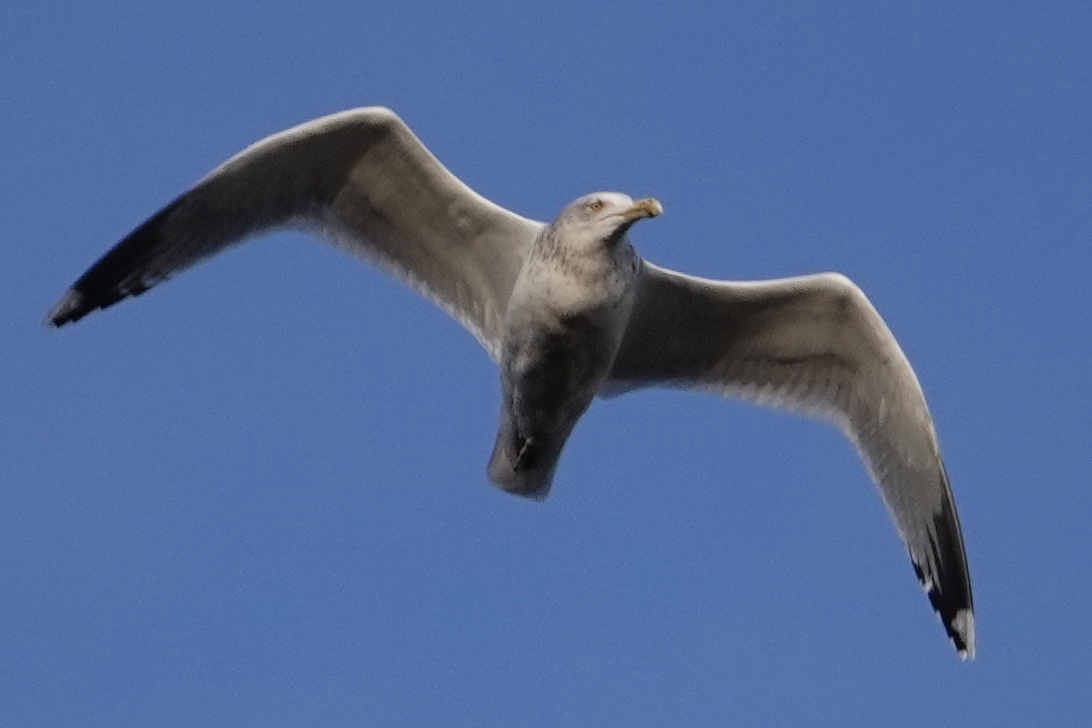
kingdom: Animalia
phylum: Chordata
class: Aves
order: Charadriiformes
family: Laridae
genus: Larus
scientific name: Larus argentatus
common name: Herring gull
